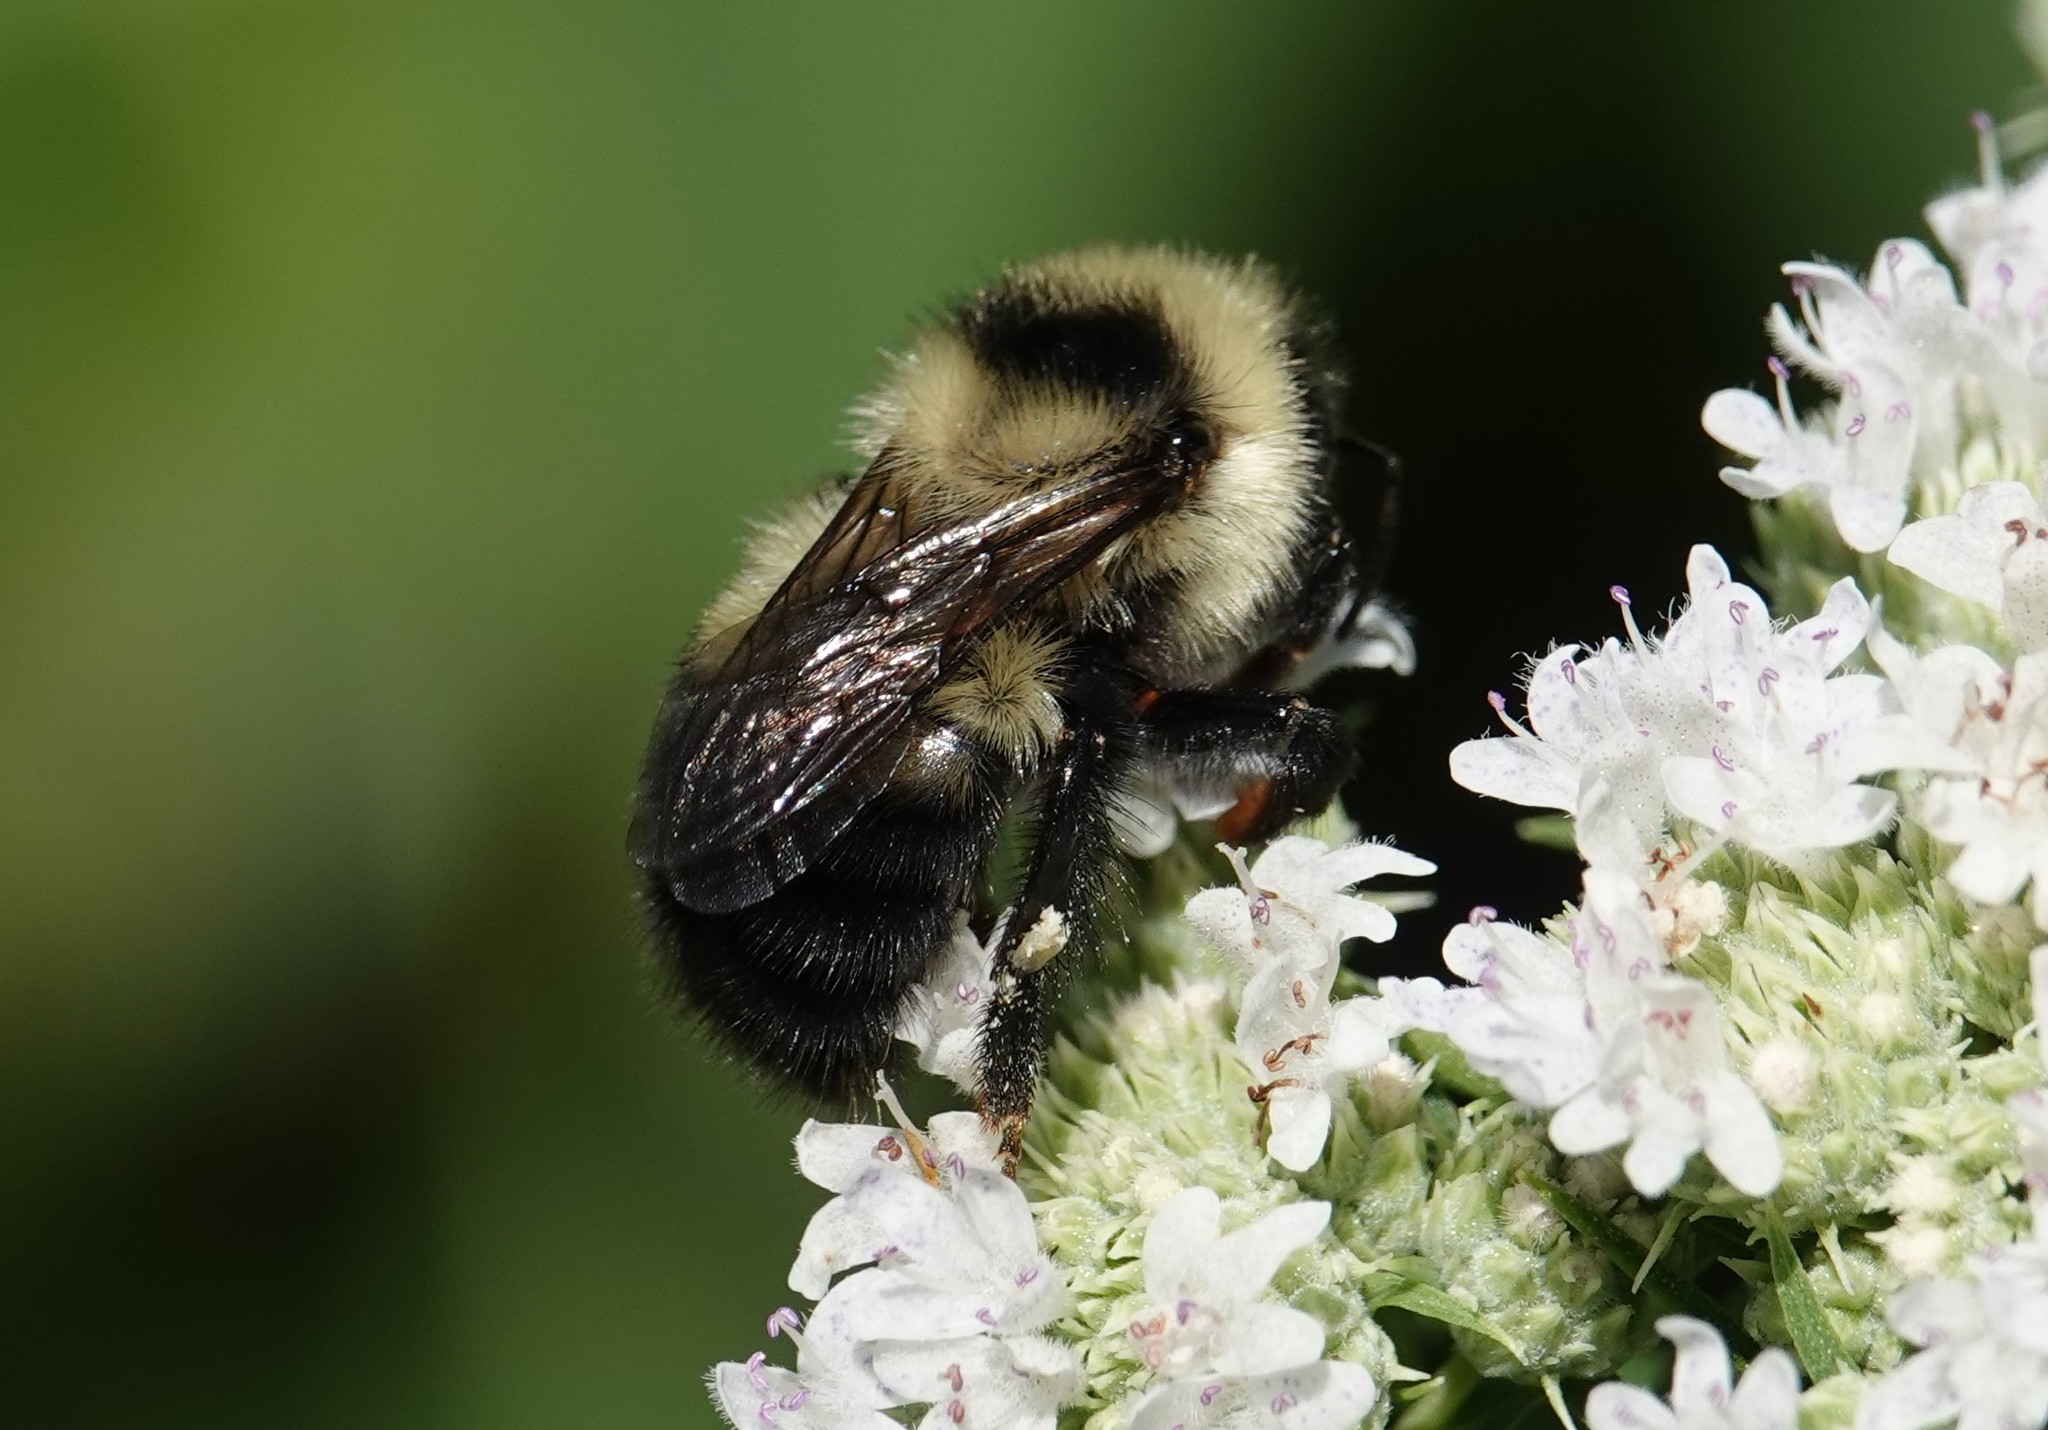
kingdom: Animalia
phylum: Arthropoda
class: Insecta
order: Hymenoptera
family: Apidae
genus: Bombus
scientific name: Bombus rufocinctus
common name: Red-belted bumble bee
